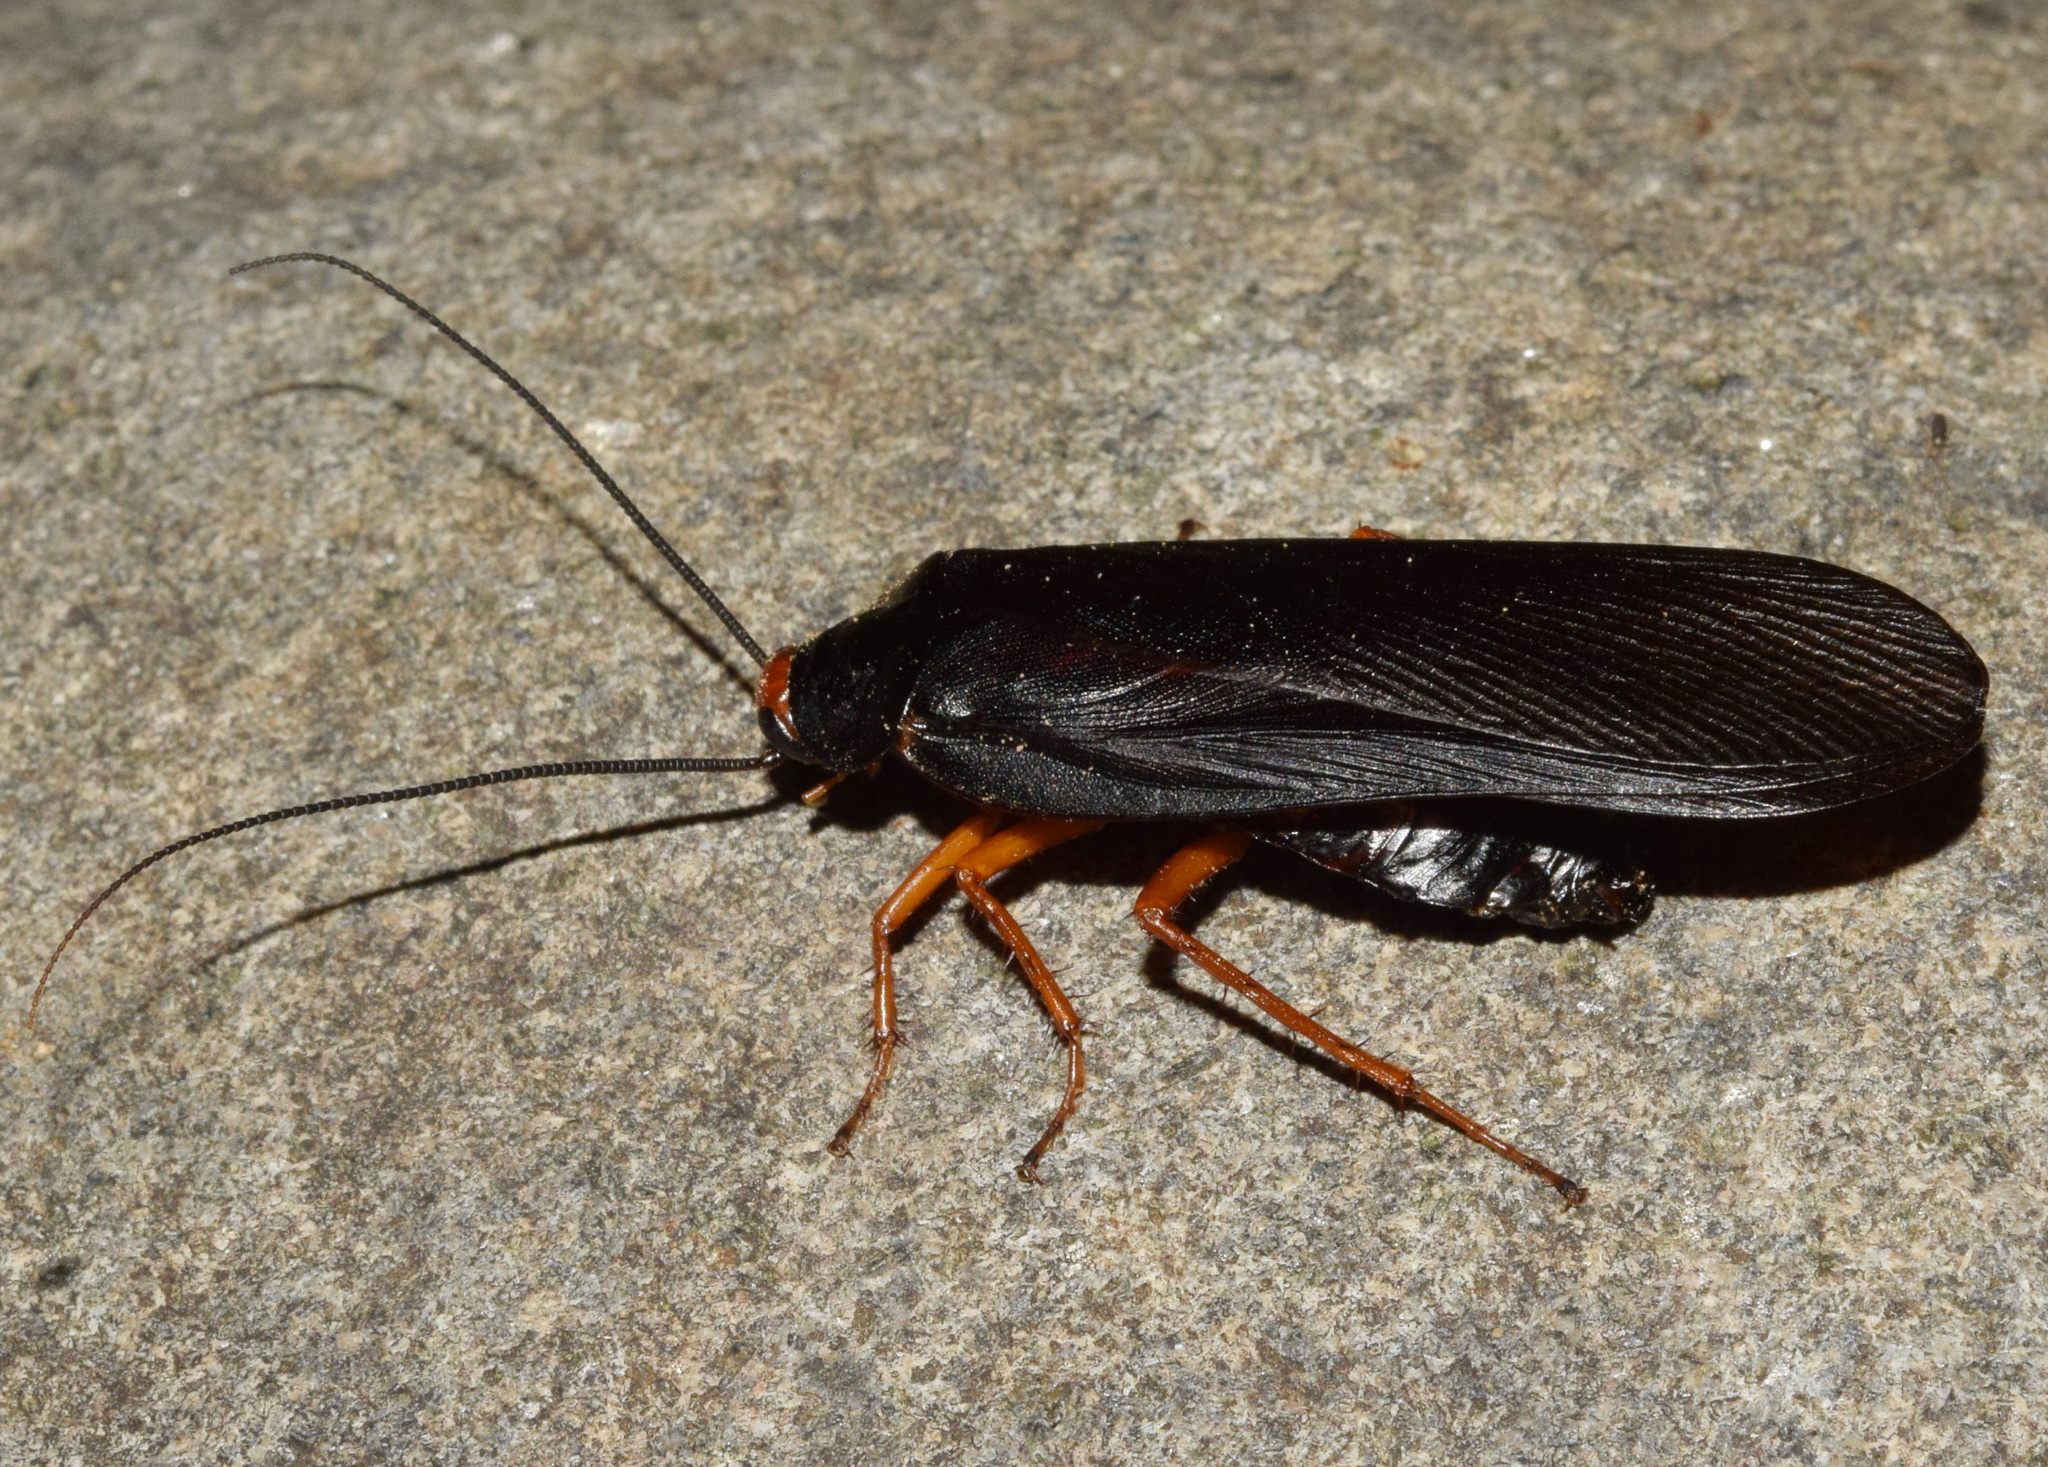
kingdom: Animalia
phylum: Arthropoda
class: Insecta
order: Blattodea
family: Blattidae
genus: Deropeltis
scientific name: Deropeltis erythrocephala
